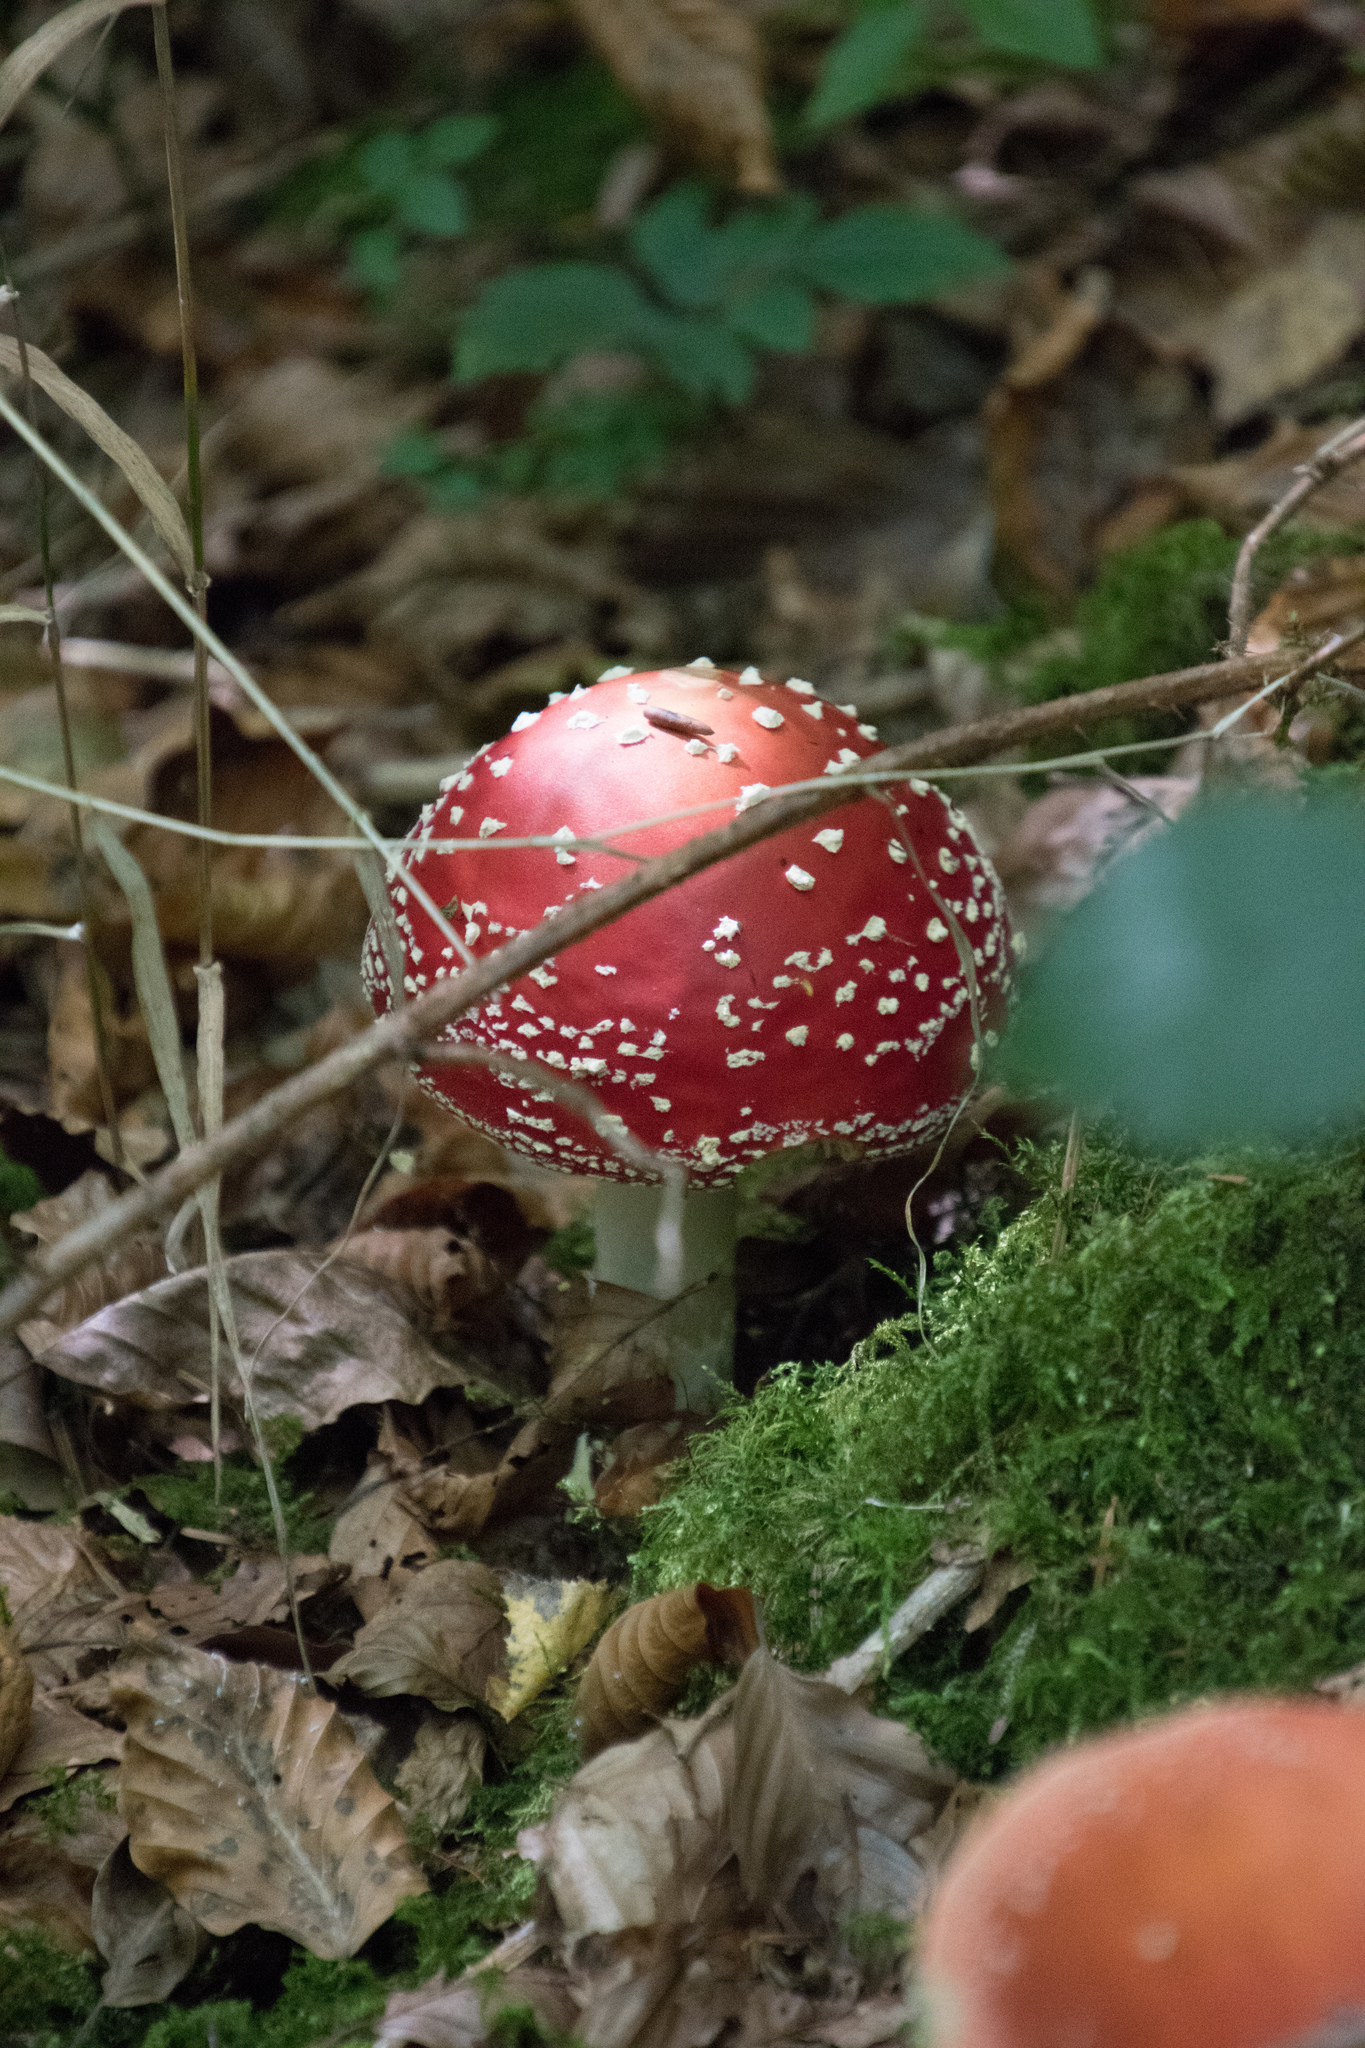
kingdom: Fungi
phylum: Basidiomycota
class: Agaricomycetes
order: Agaricales
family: Amanitaceae
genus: Amanita
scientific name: Amanita muscaria
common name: Fly agaric
